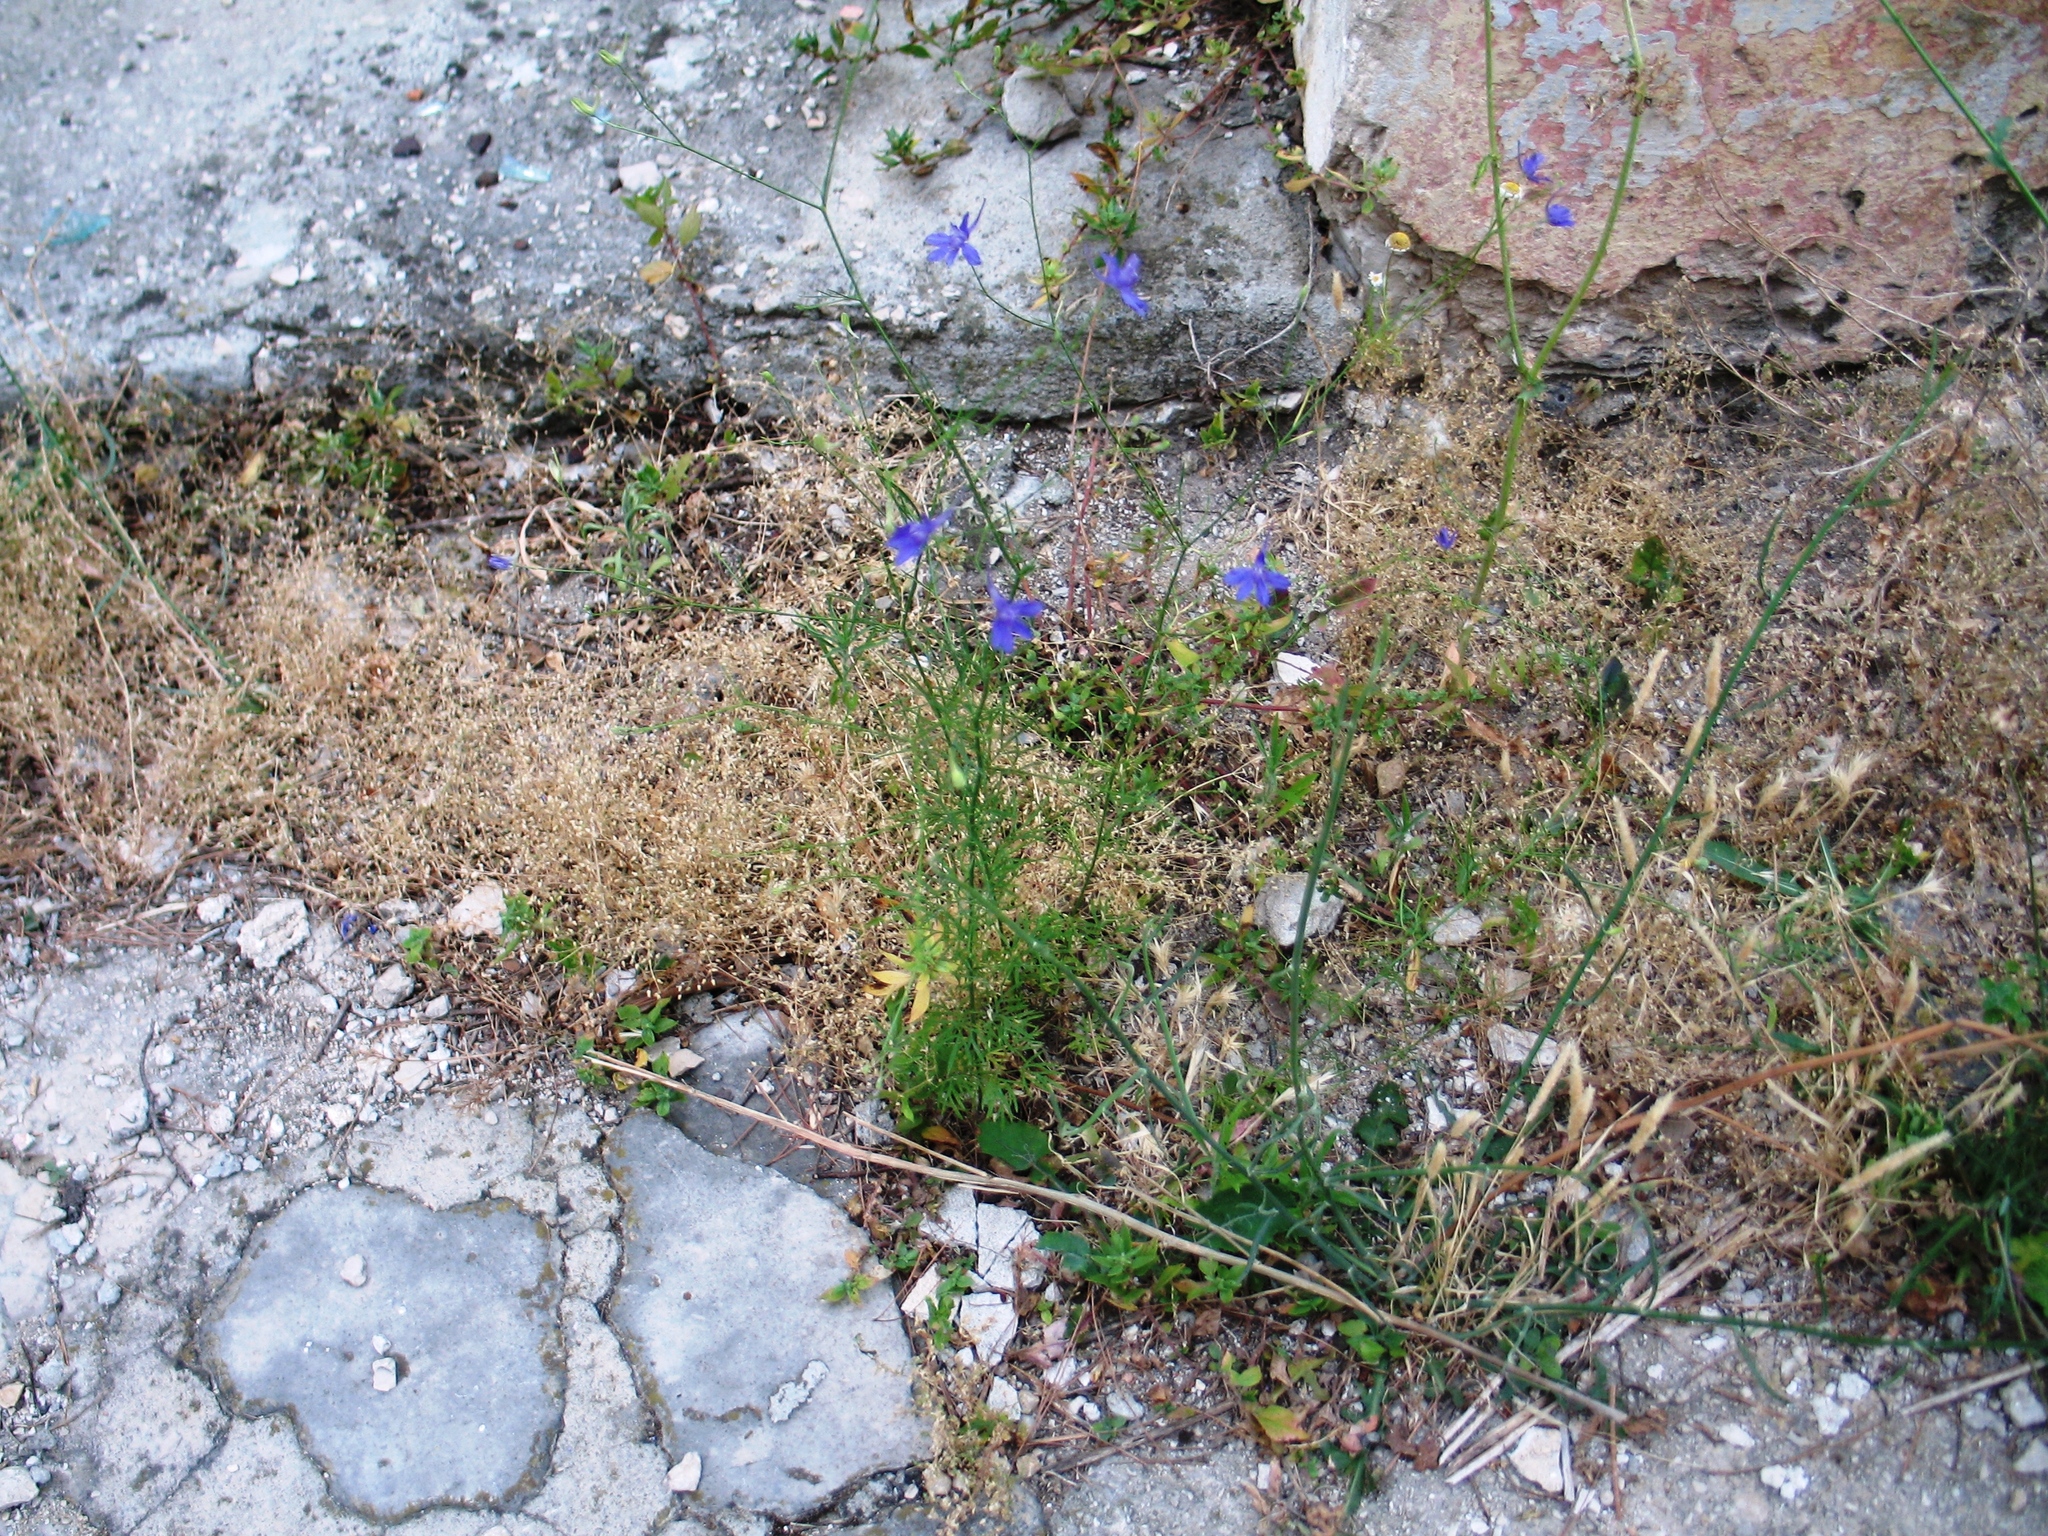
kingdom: Plantae
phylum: Tracheophyta
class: Magnoliopsida
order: Ranunculales
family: Ranunculaceae
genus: Delphinium
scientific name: Delphinium consolida
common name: Branching larkspur
